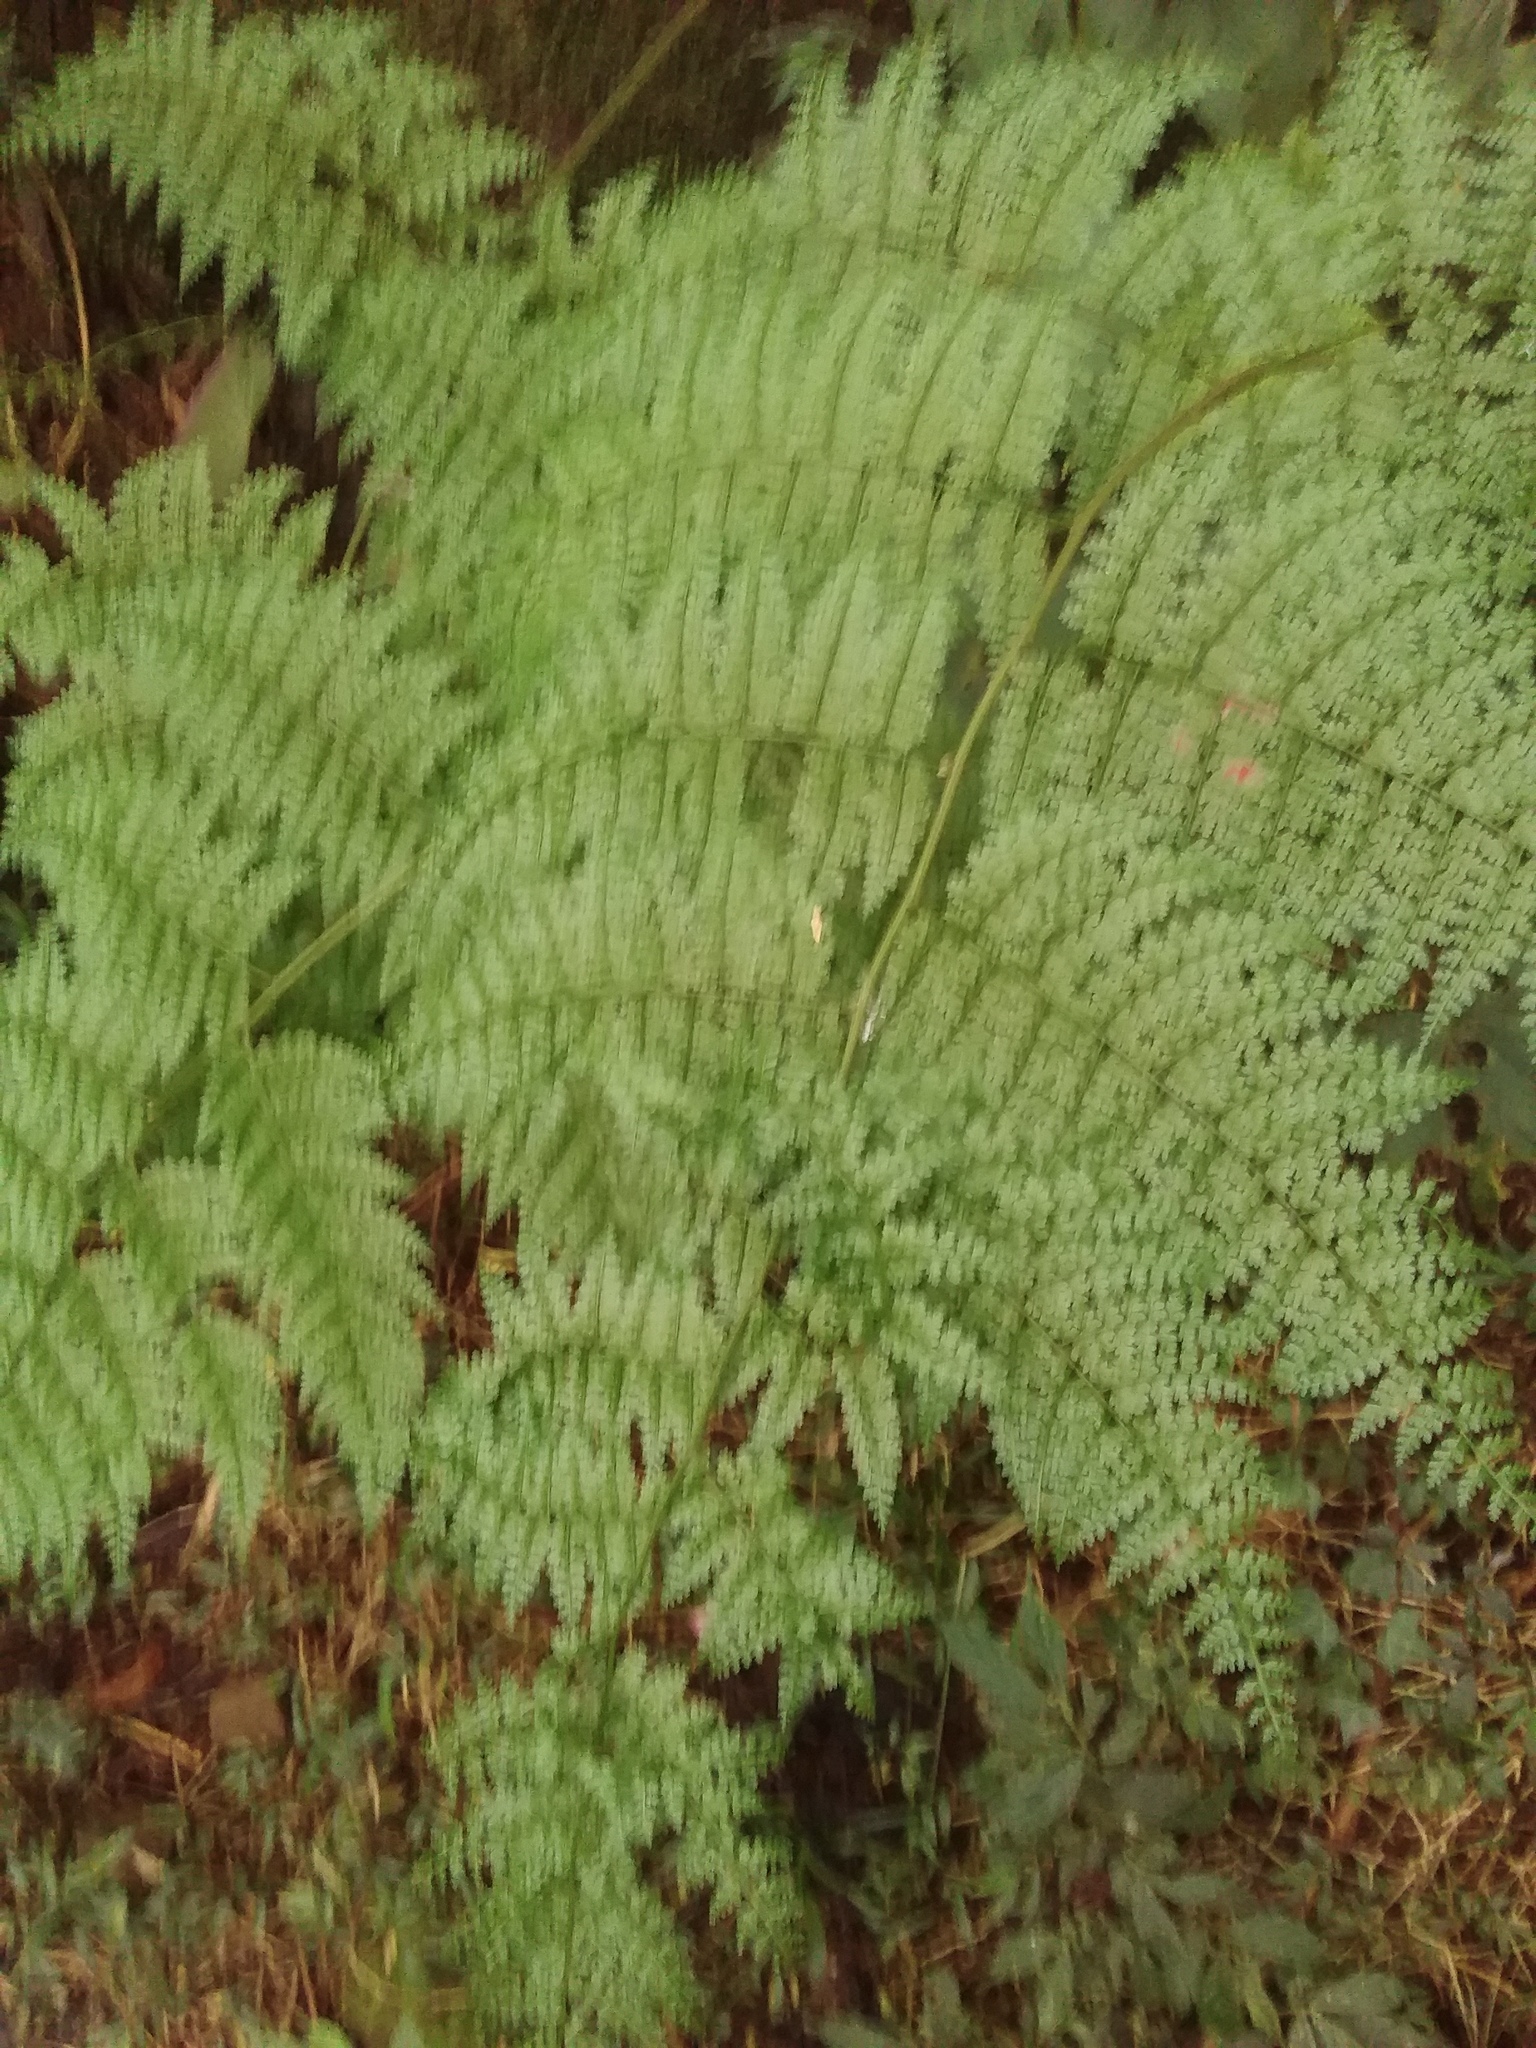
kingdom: Plantae
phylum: Tracheophyta
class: Polypodiopsida
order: Polypodiales
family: Dennstaedtiaceae
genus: Monachosorum
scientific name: Monachosorum henryi
